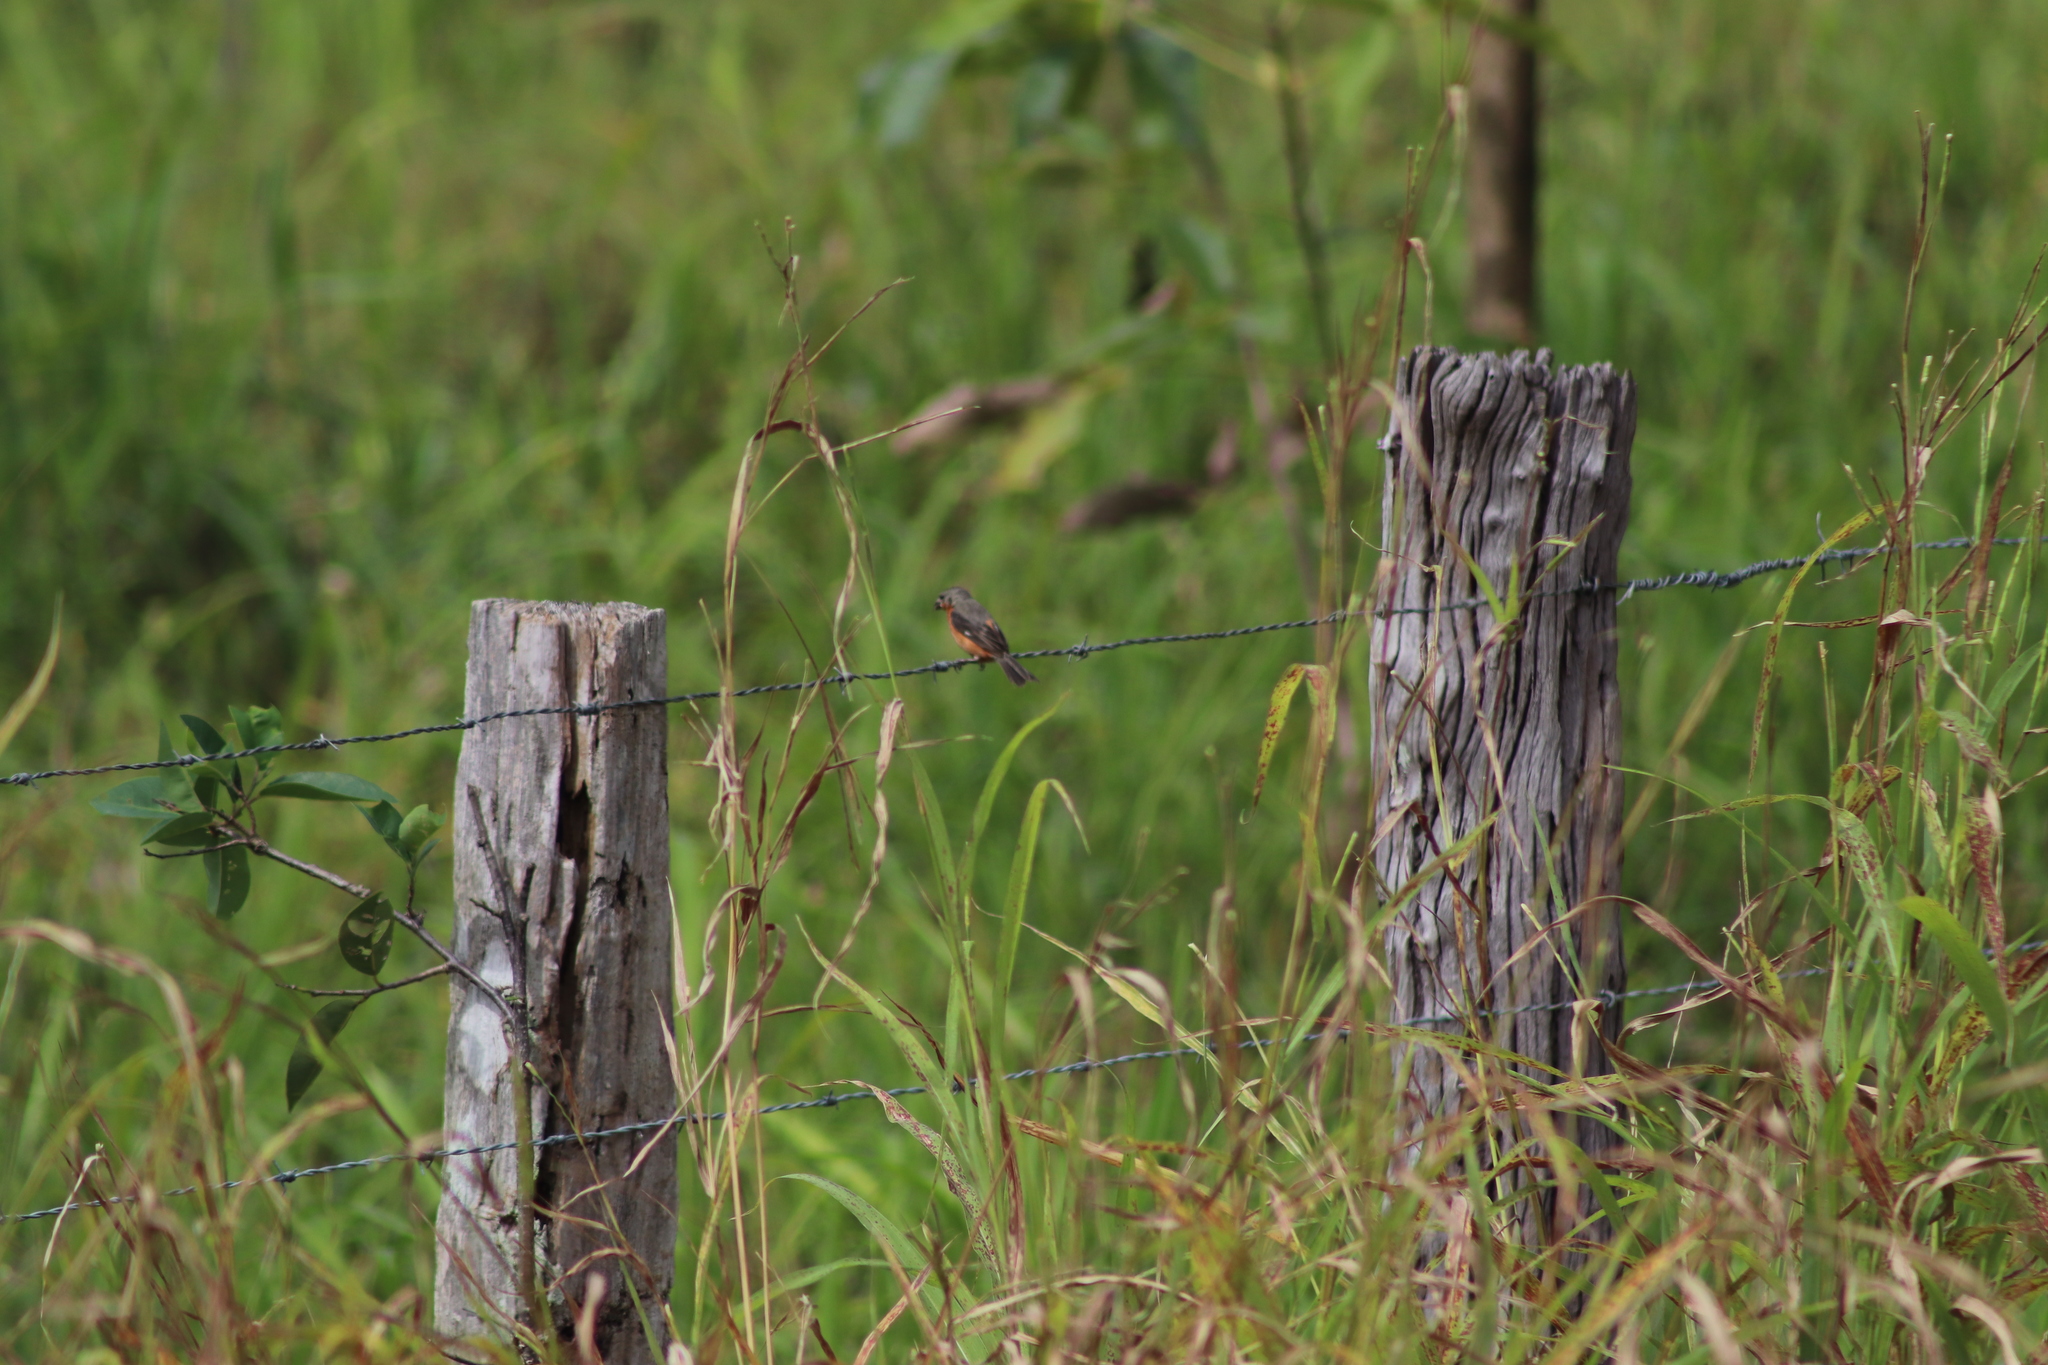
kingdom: Animalia
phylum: Chordata
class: Aves
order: Passeriformes
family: Thraupidae
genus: Sporophila
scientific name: Sporophila minuta
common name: Ruddy-breasted seedeater
